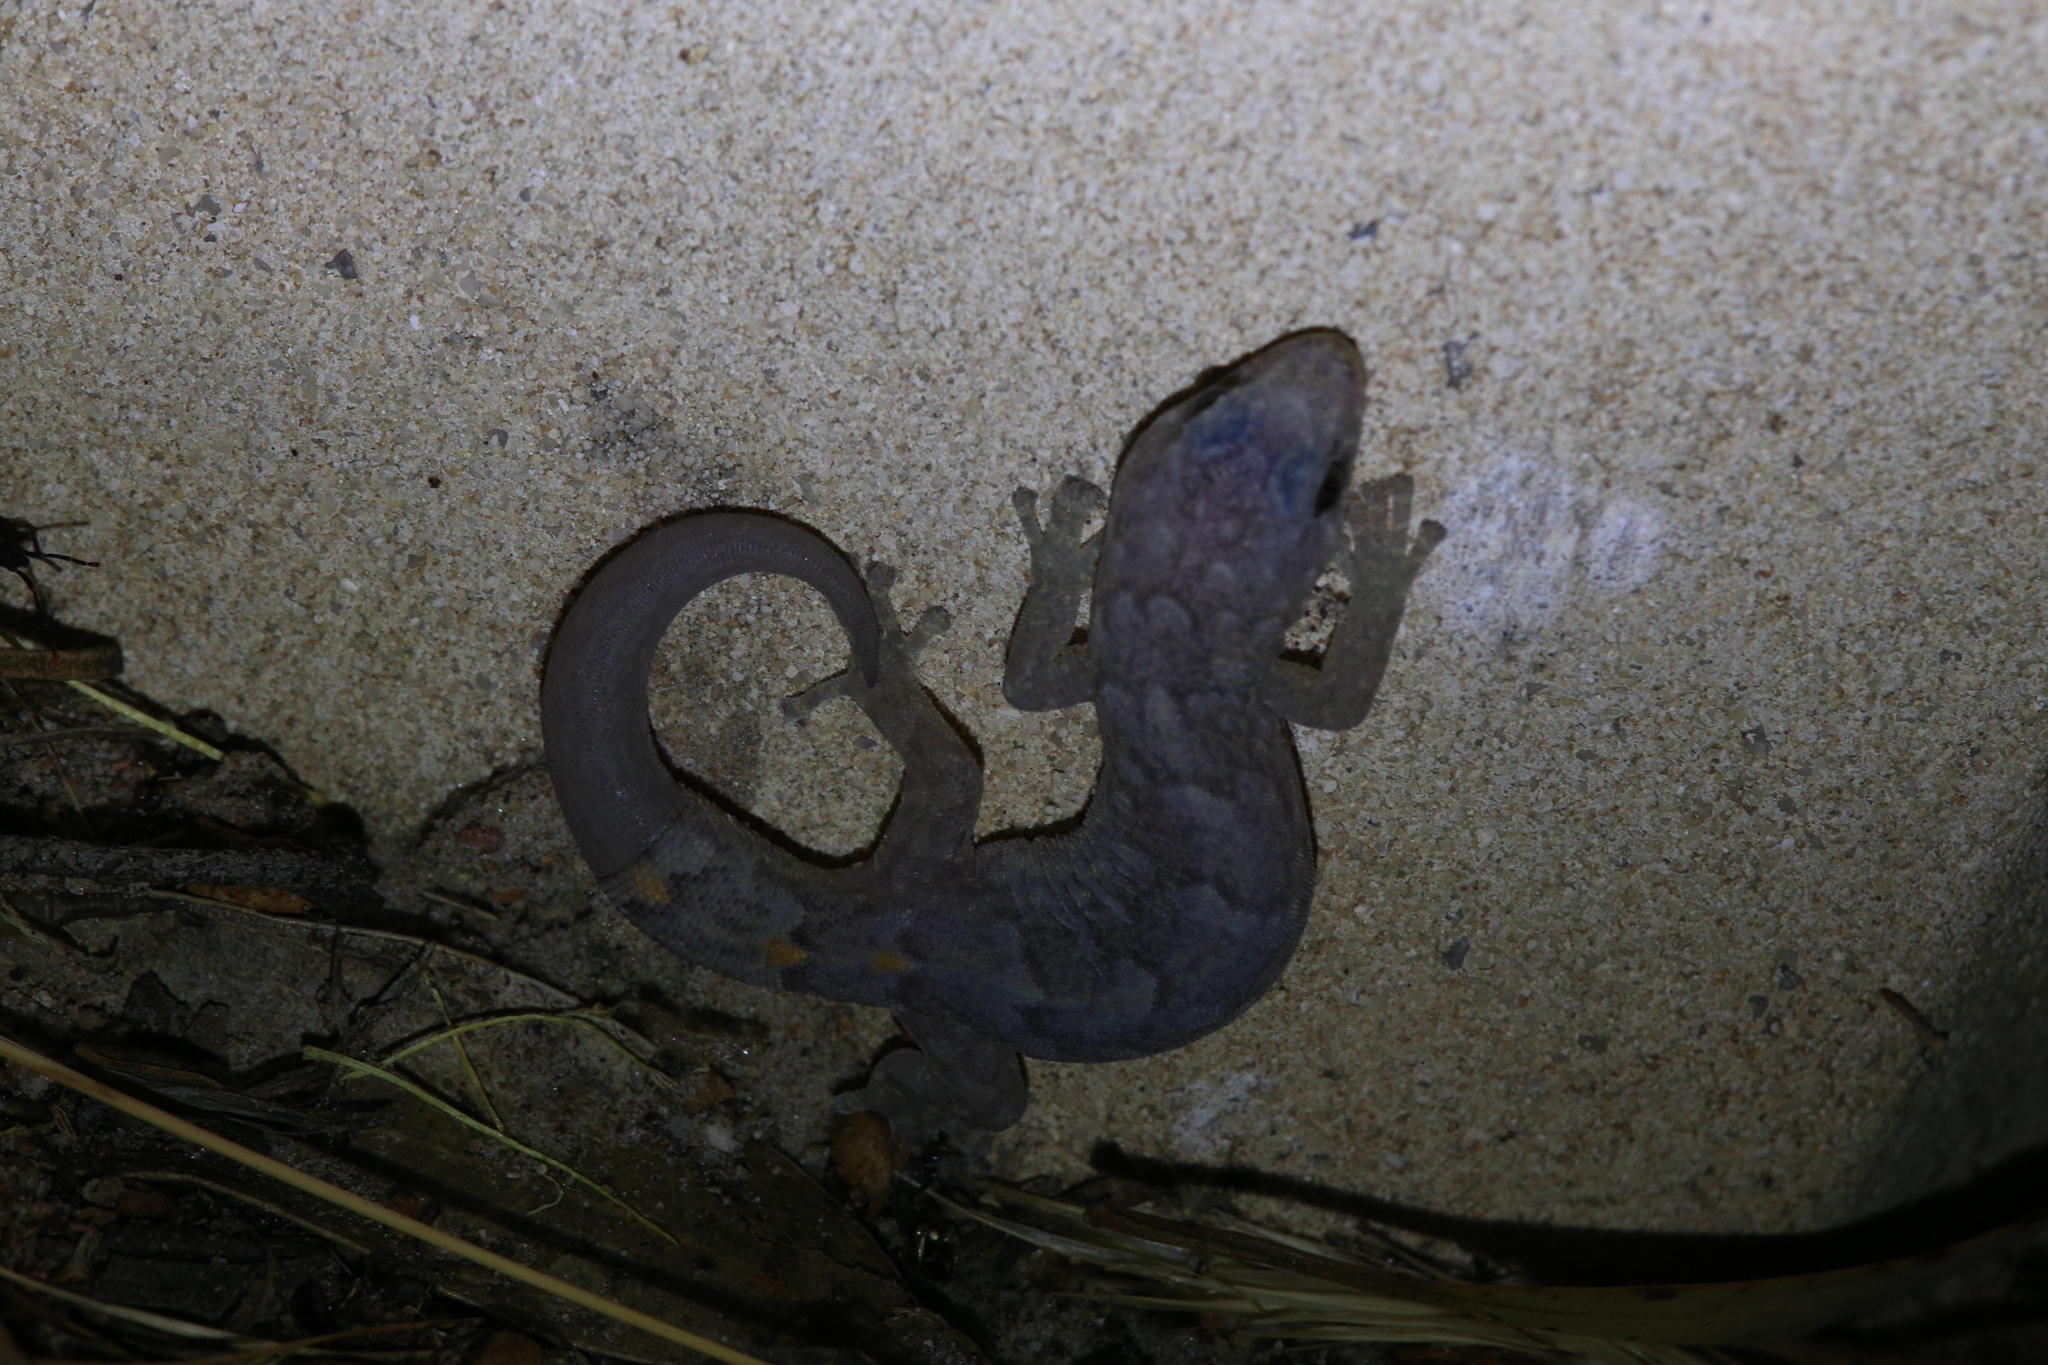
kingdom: Animalia
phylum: Chordata
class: Squamata
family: Gekkonidae
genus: Christinus
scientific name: Christinus marmoratus
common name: Marbled gecko
